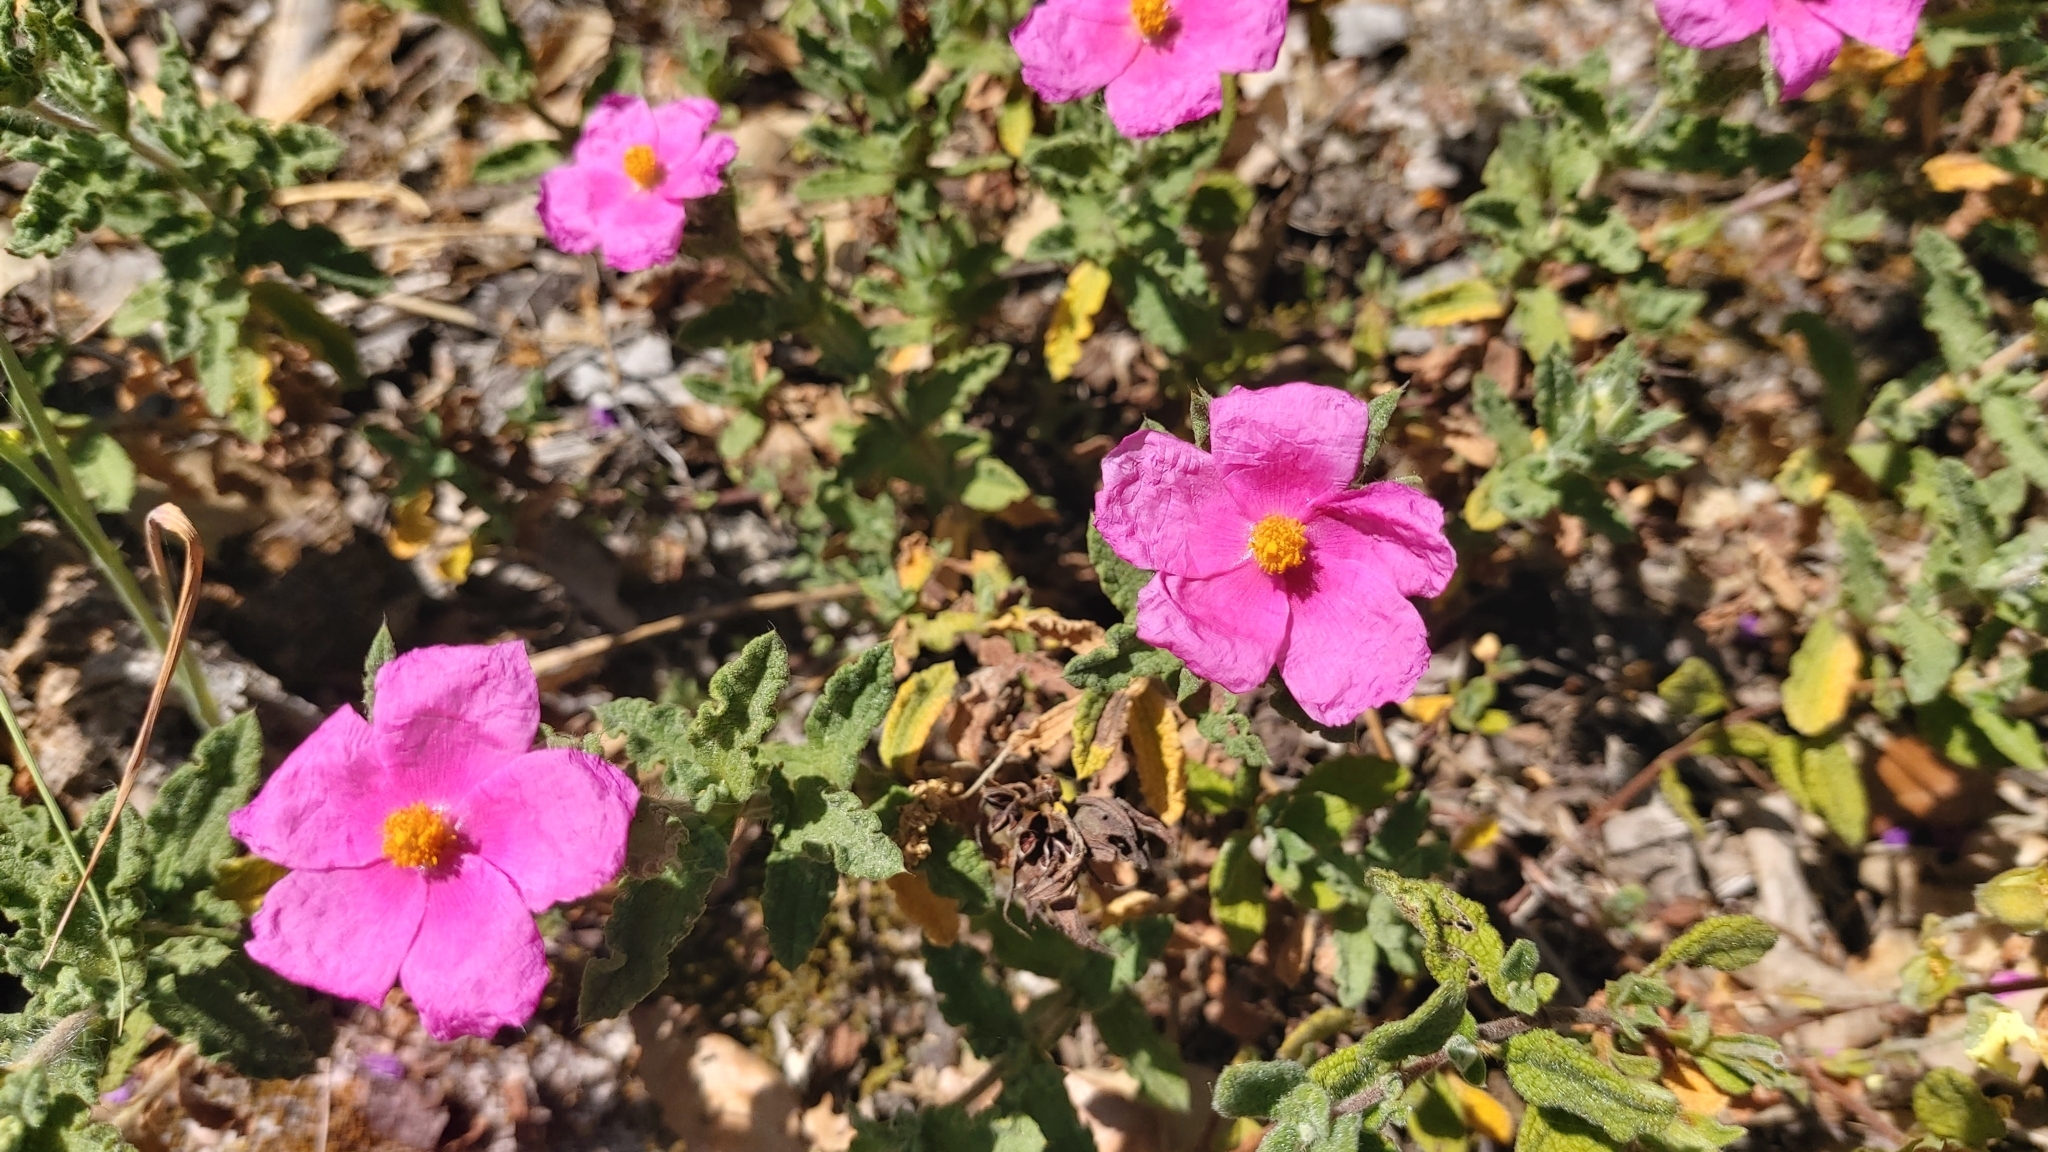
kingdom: Plantae
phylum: Tracheophyta
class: Magnoliopsida
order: Malvales
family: Cistaceae
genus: Cistus
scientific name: Cistus crispus
